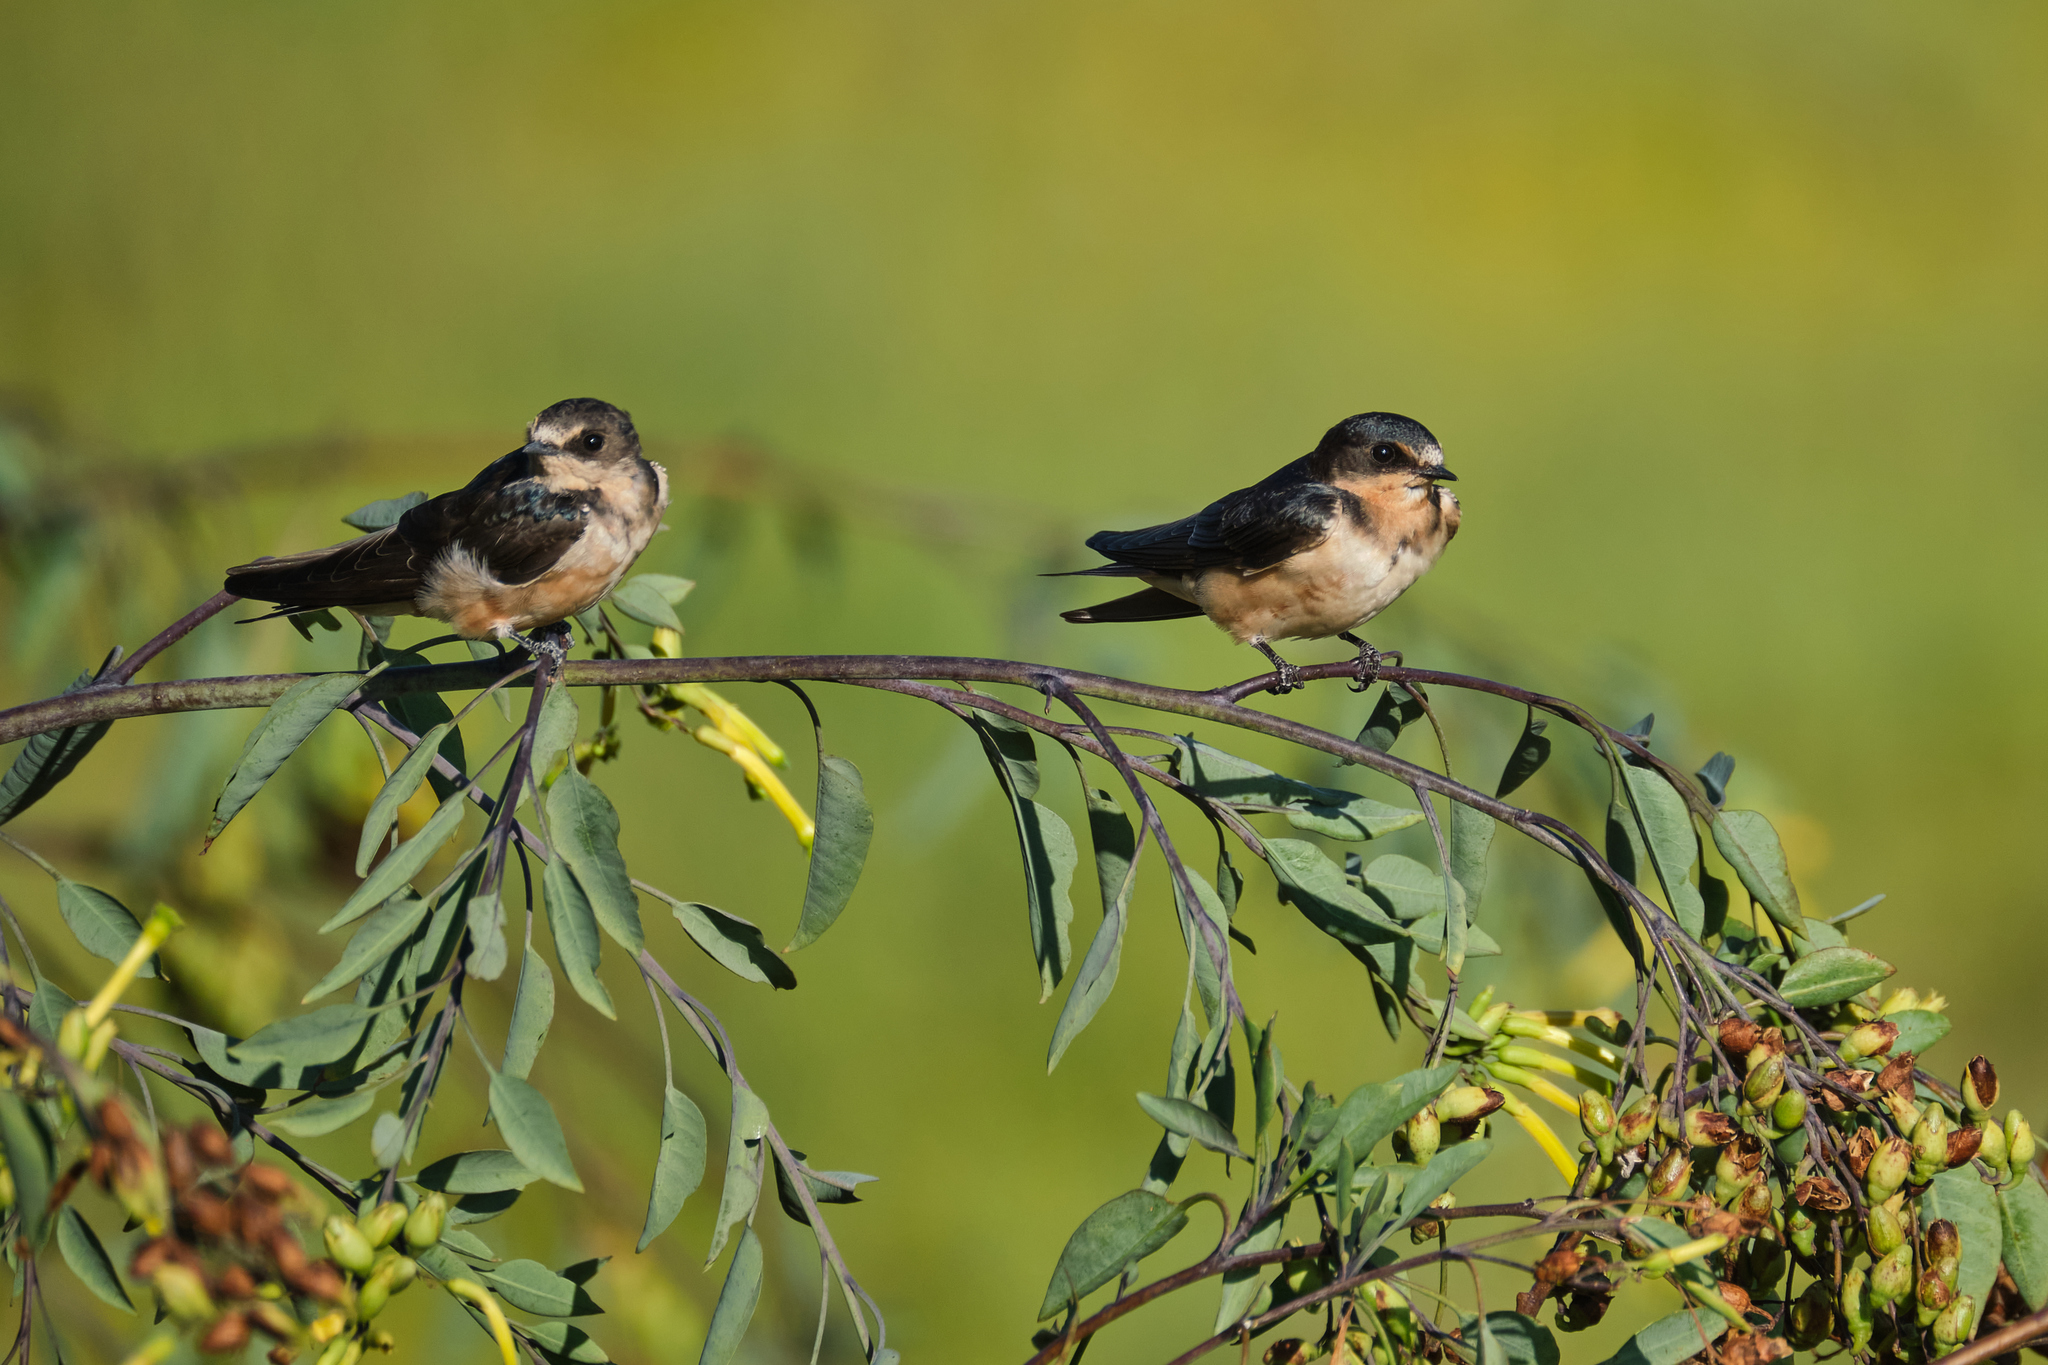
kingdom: Animalia
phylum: Chordata
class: Aves
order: Passeriformes
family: Hirundinidae
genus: Hirundo
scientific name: Hirundo rustica
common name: Barn swallow
